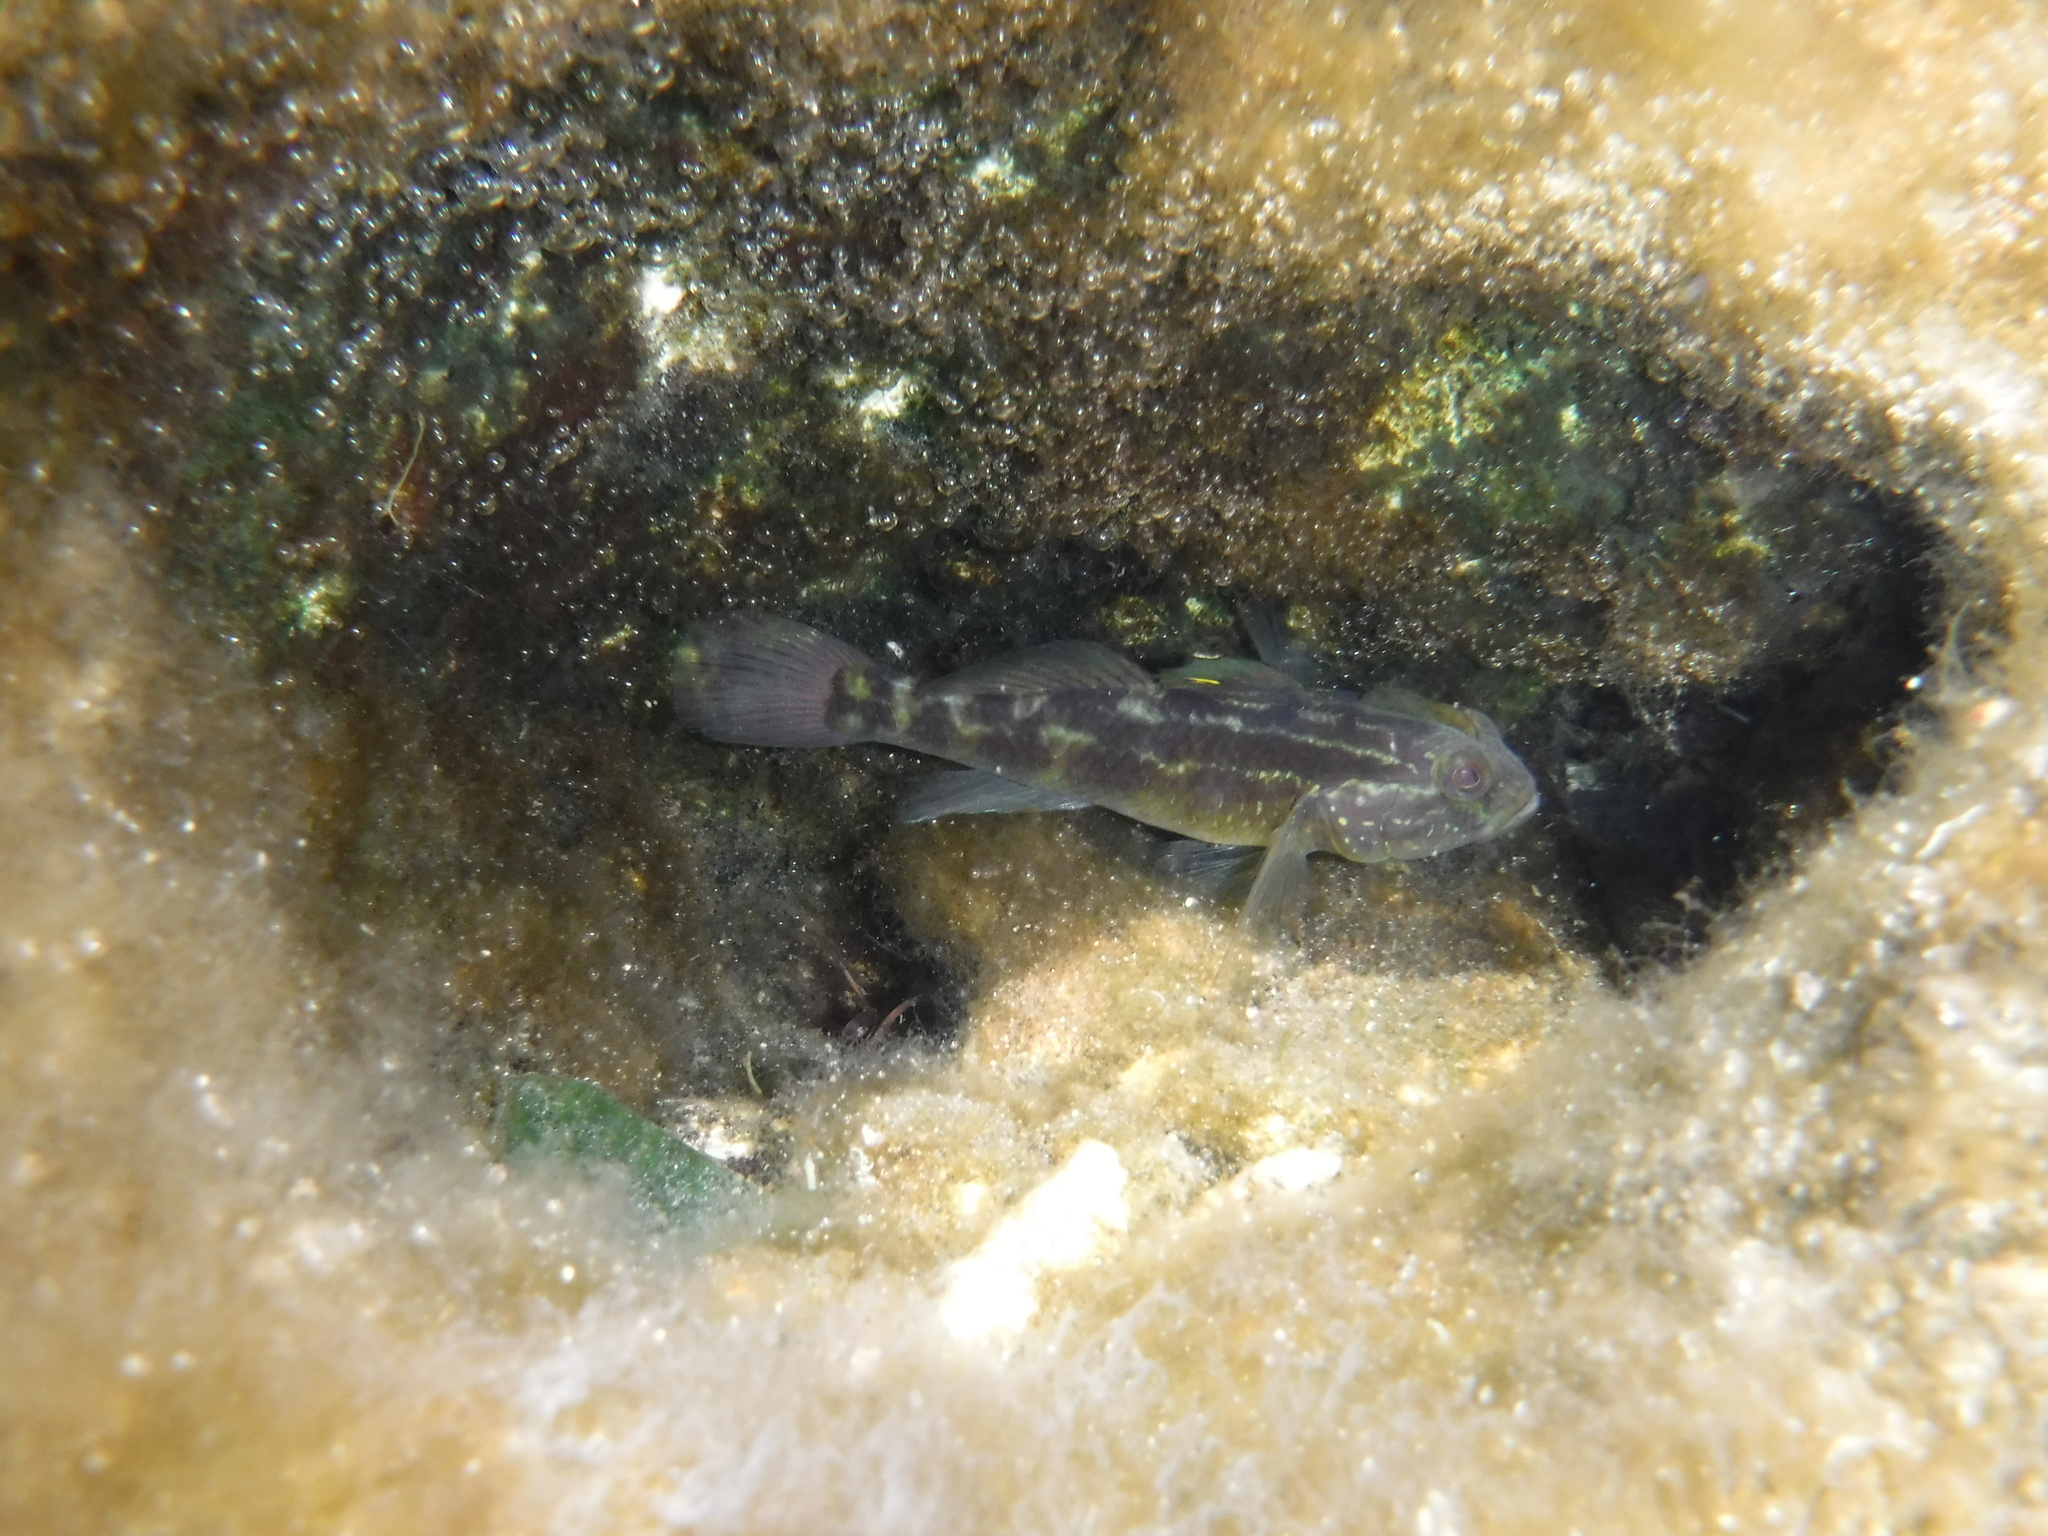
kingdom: Animalia
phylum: Chordata
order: Perciformes
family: Gobiidae
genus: Lophogobius
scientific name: Lophogobius cyprinoides
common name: Crested goby
